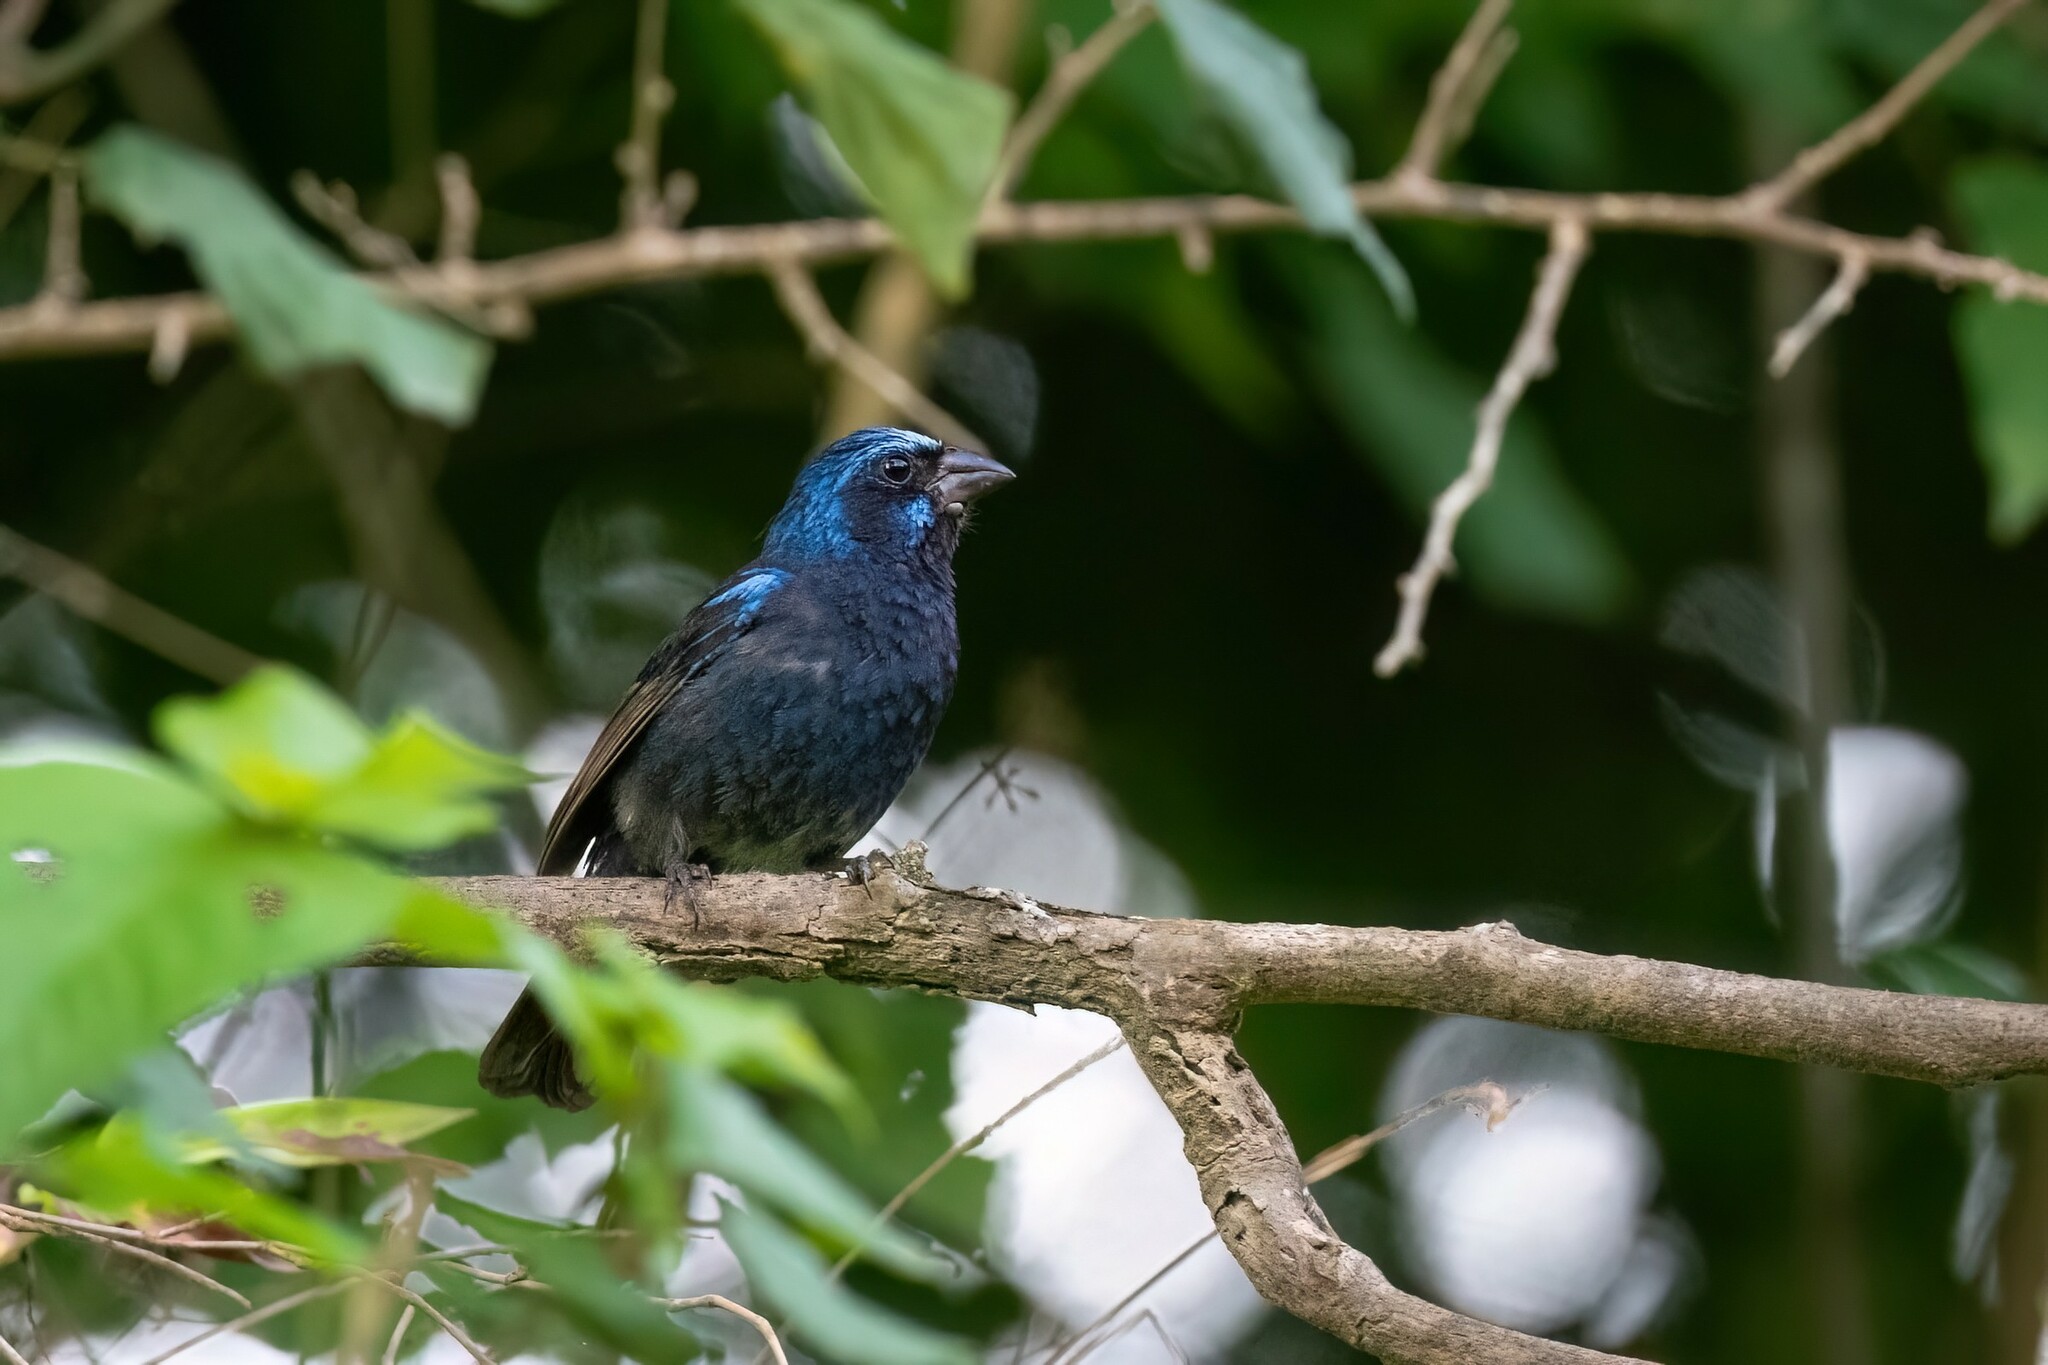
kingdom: Animalia
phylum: Chordata
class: Aves
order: Passeriformes
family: Cardinalidae
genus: Cyanocompsa
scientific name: Cyanocompsa parellina
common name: Blue bunting
